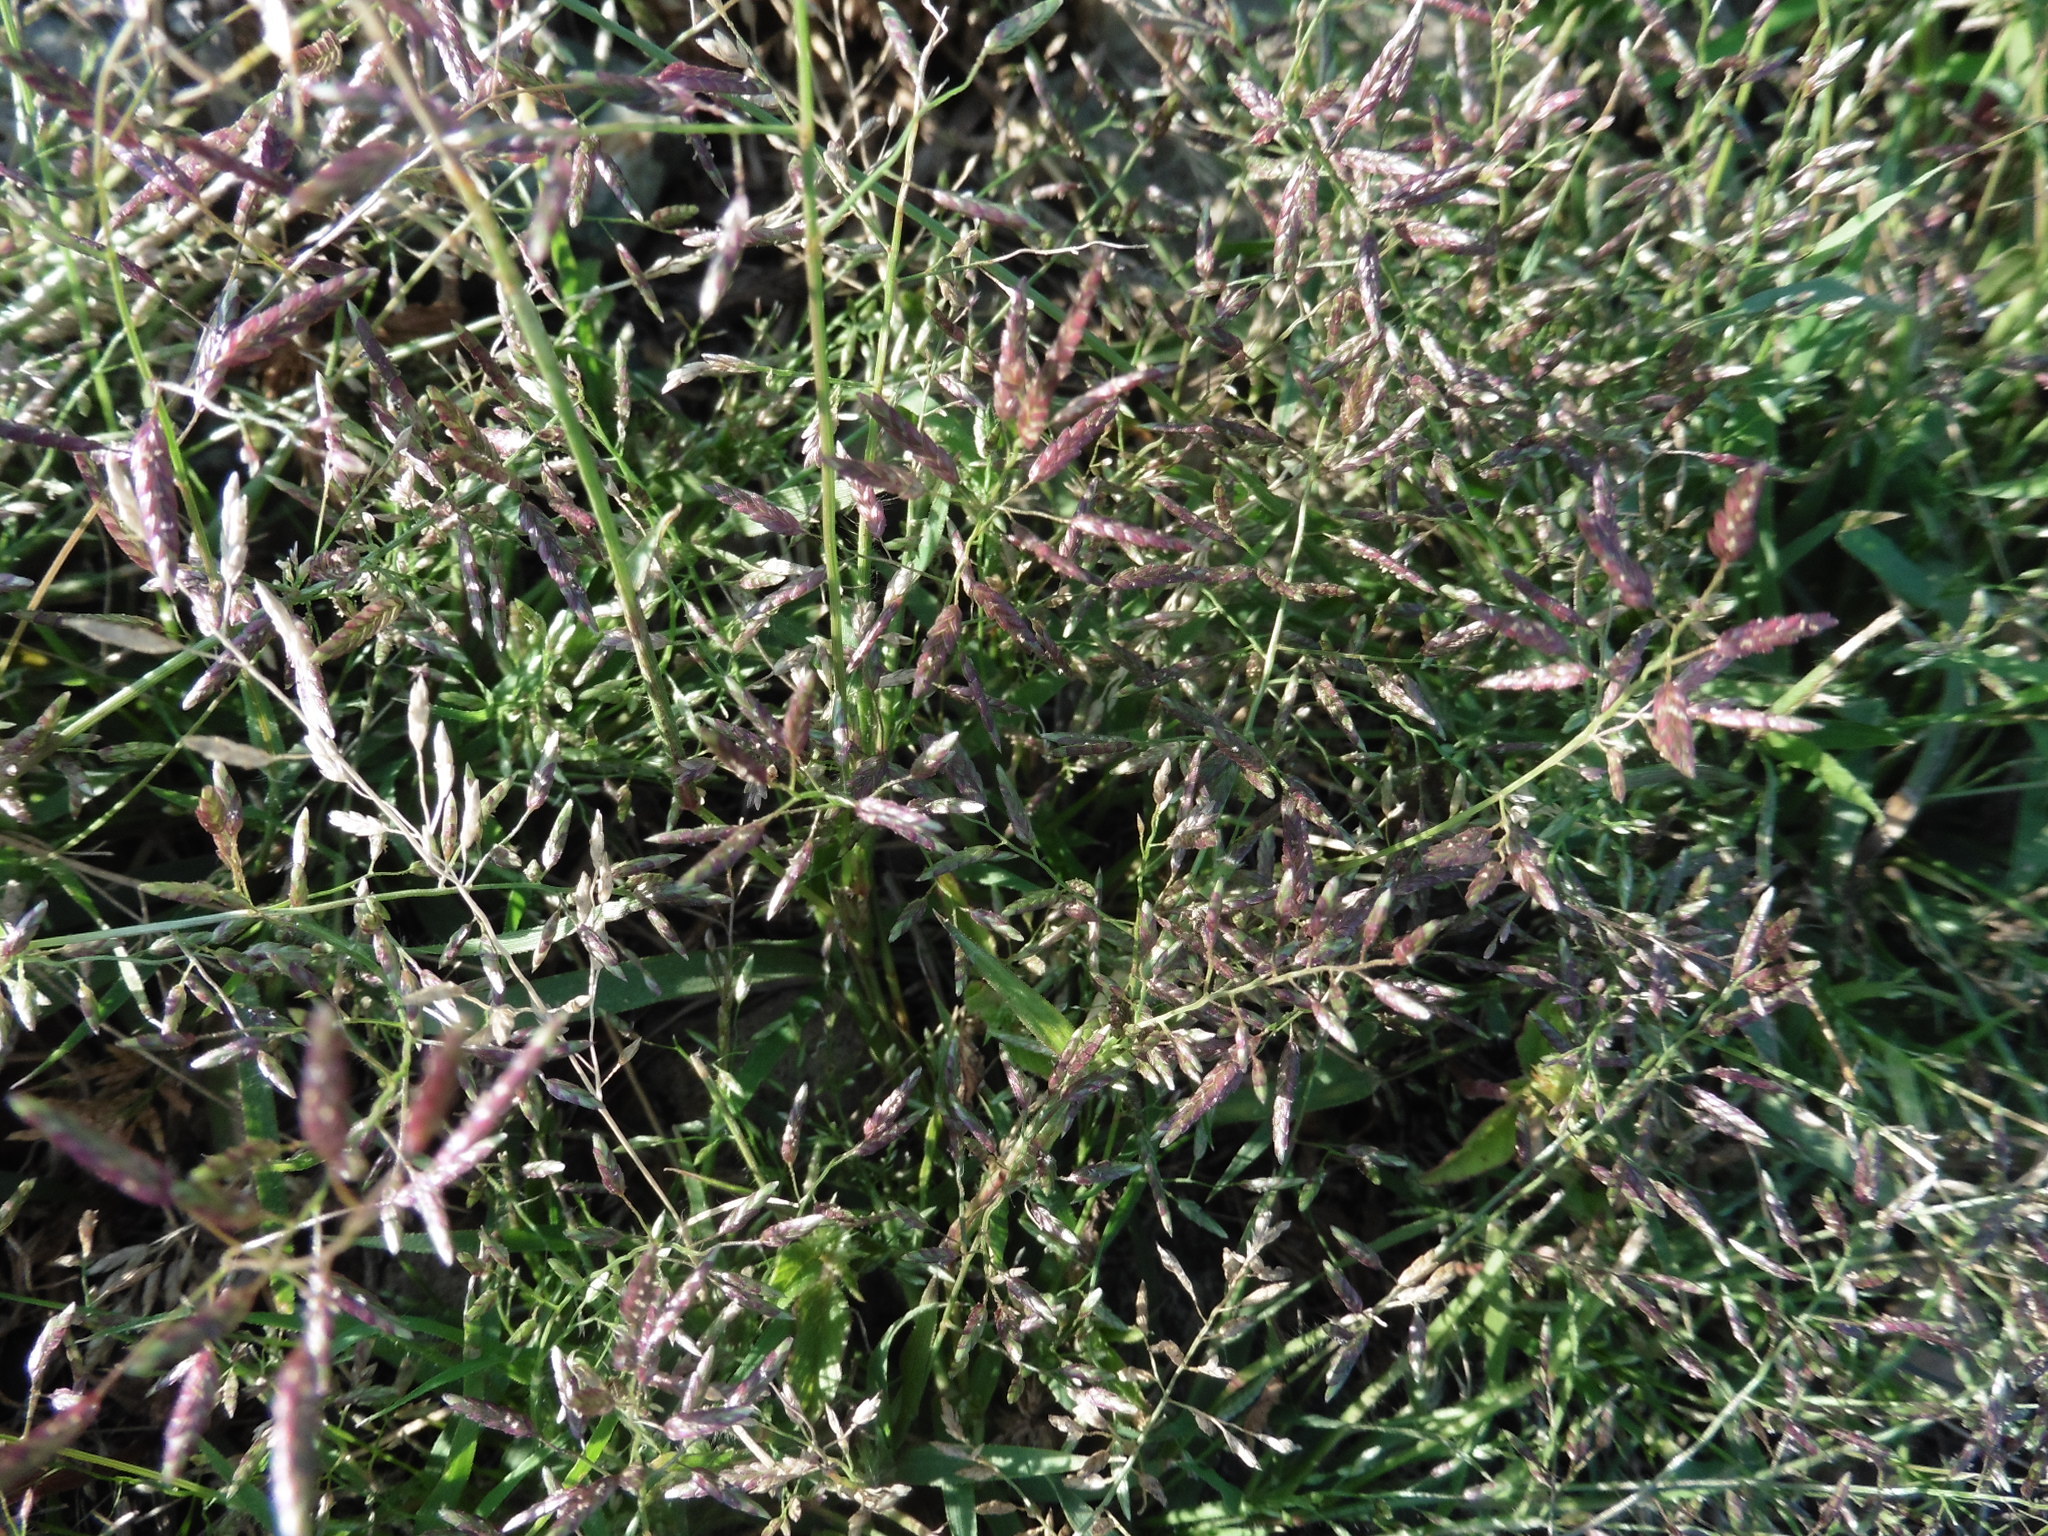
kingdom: Plantae
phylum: Tracheophyta
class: Liliopsida
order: Poales
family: Poaceae
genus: Eragrostis
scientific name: Eragrostis minor
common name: Small love-grass
